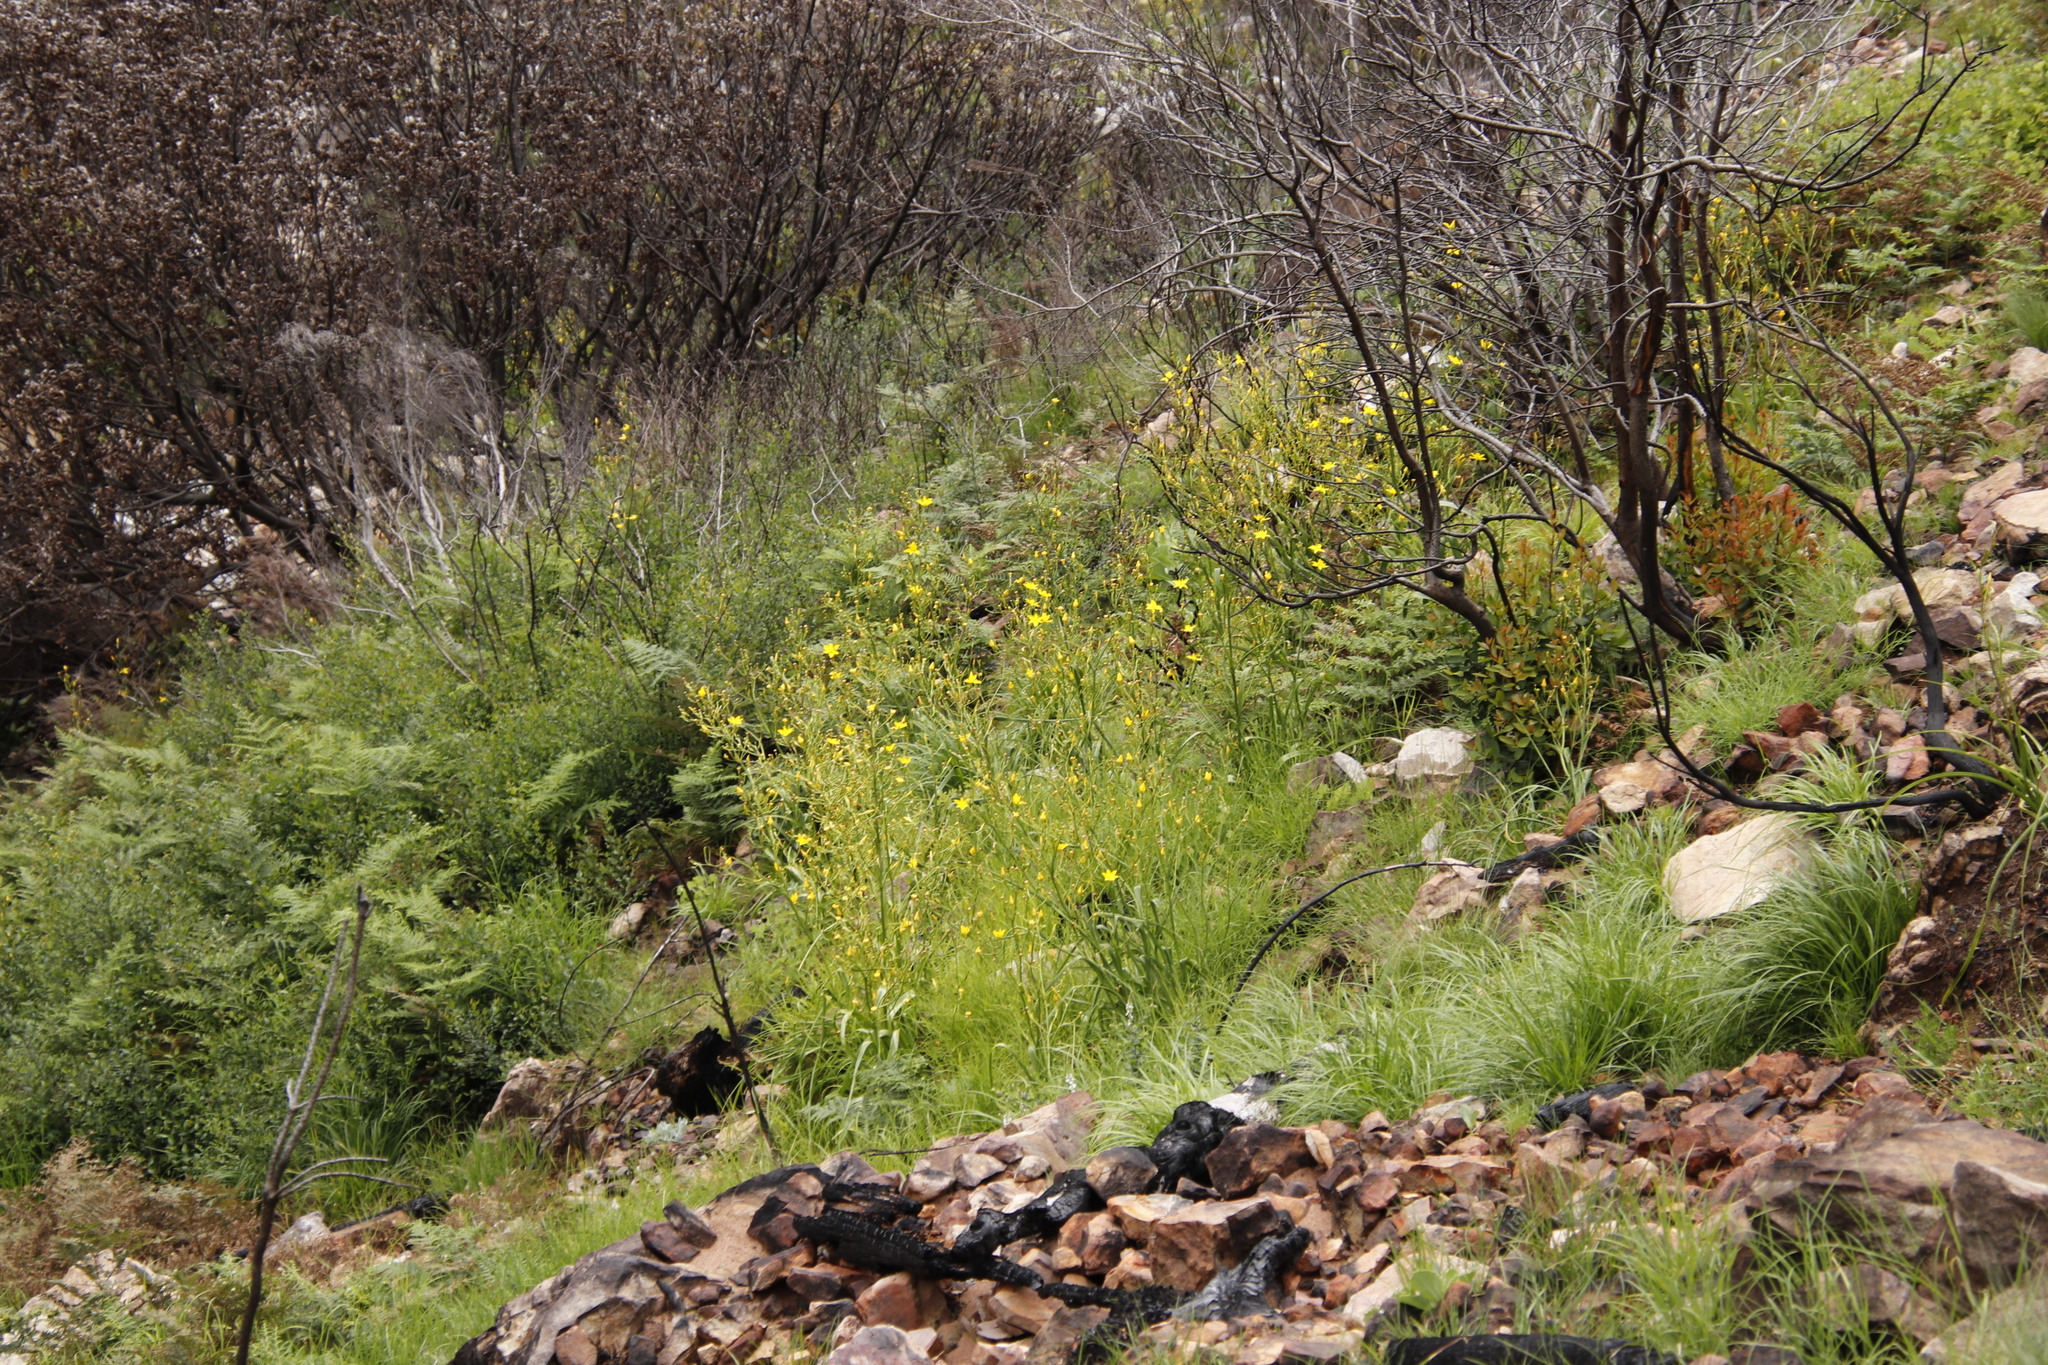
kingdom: Plantae
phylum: Tracheophyta
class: Liliopsida
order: Asparagales
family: Iridaceae
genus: Moraea
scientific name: Moraea ramosissima
